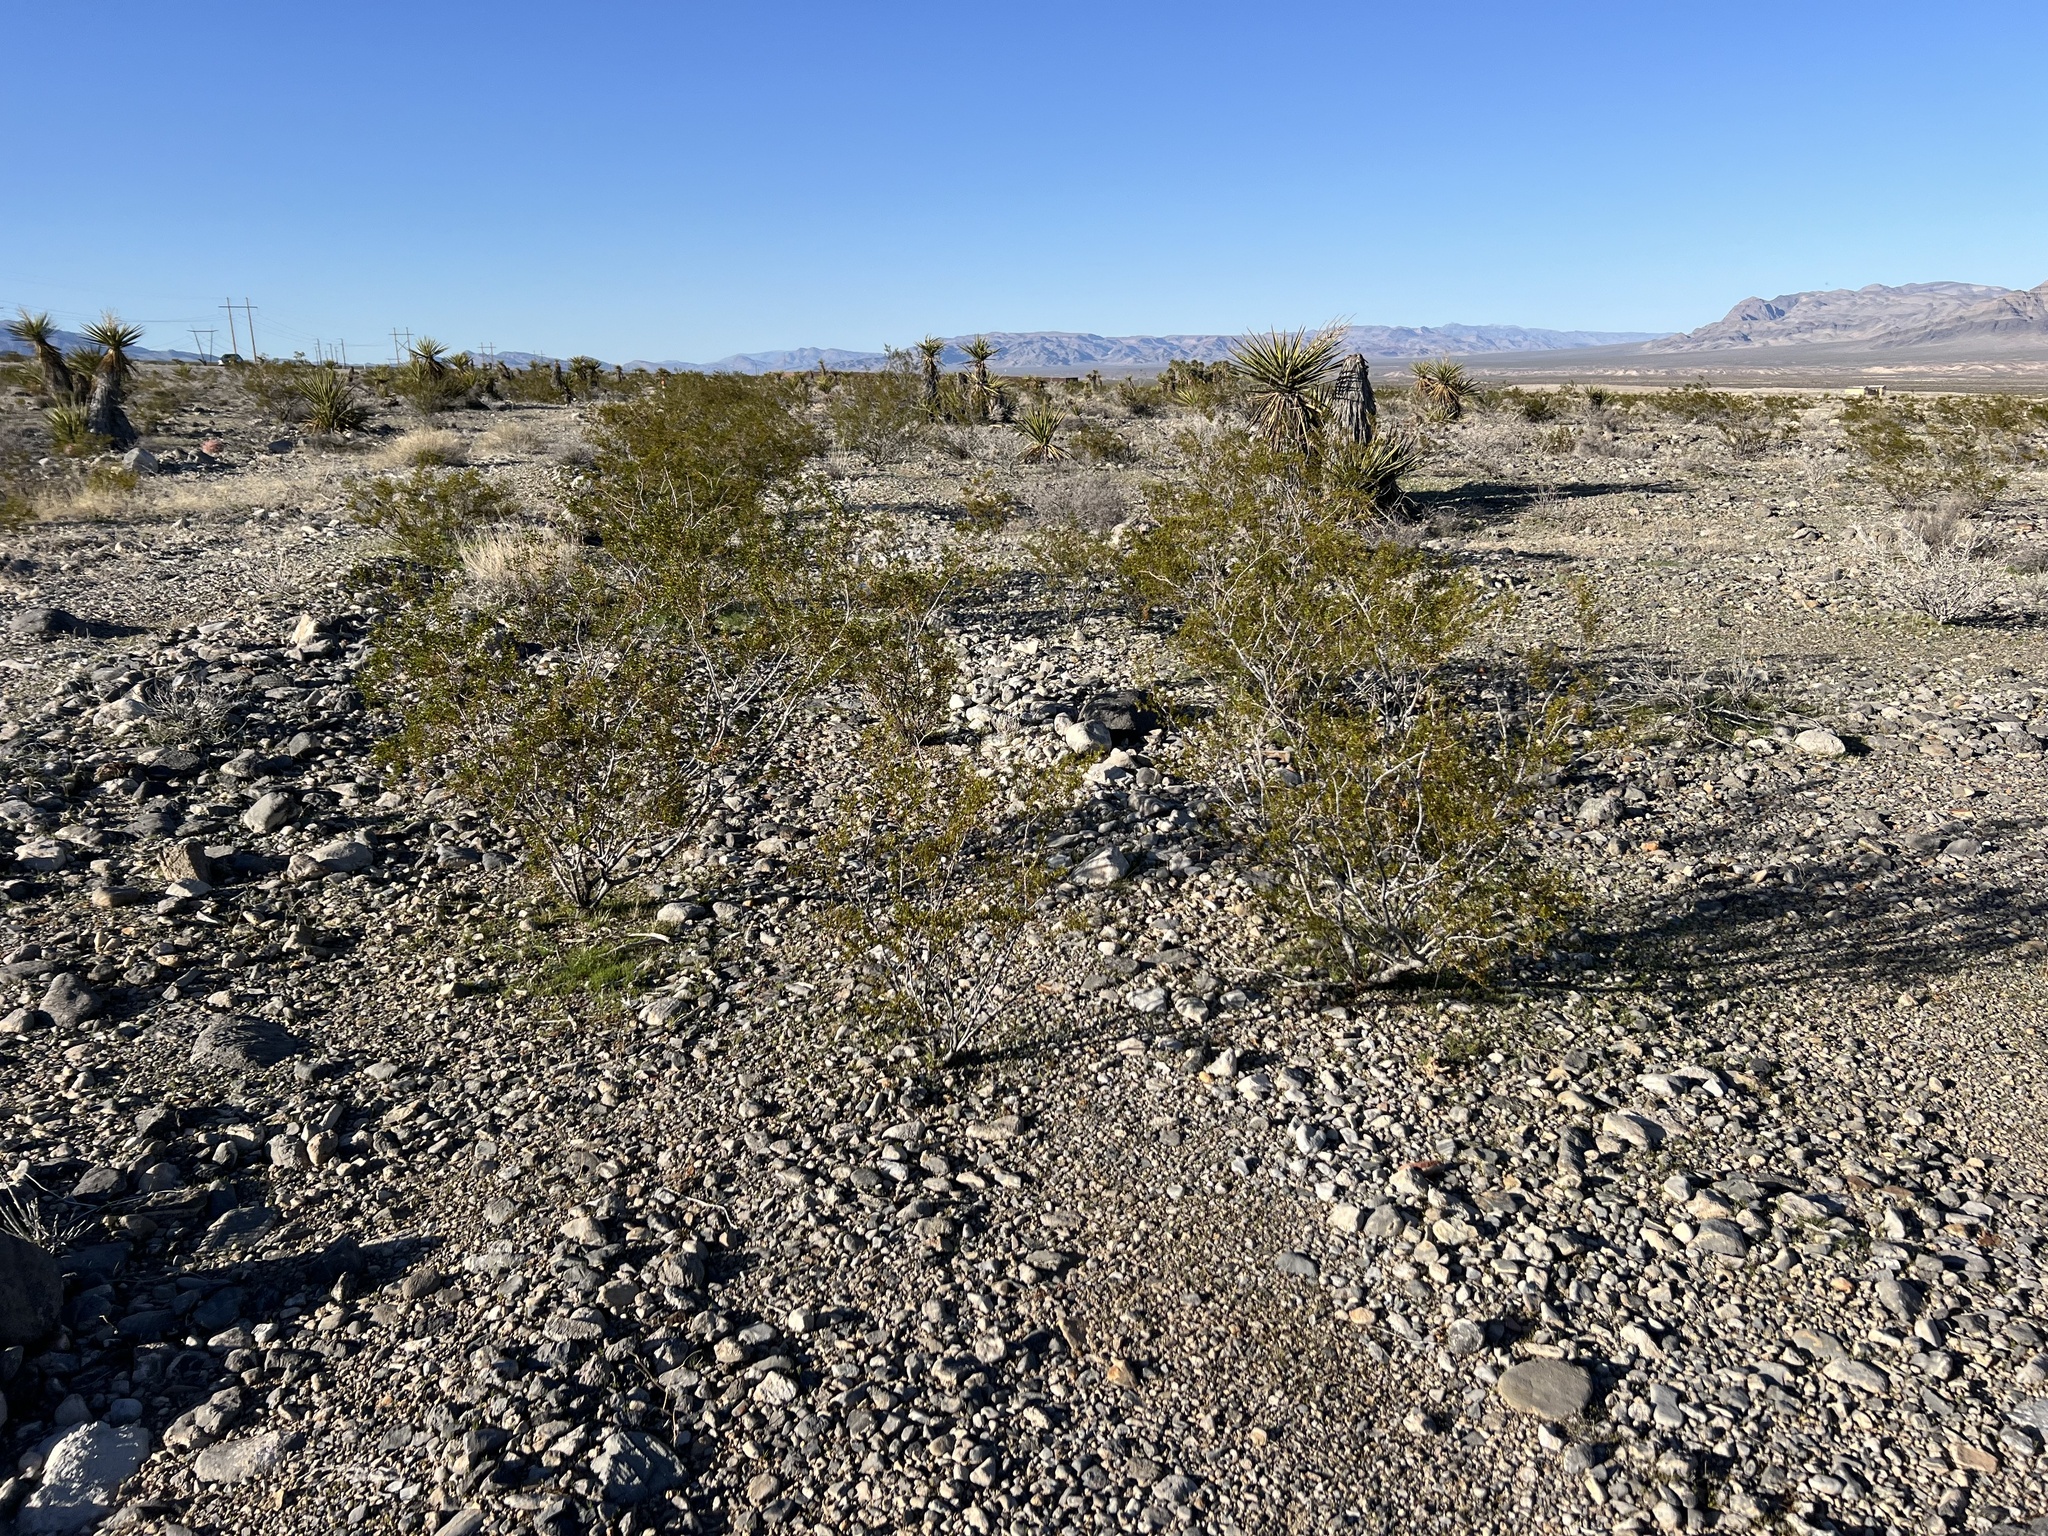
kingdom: Plantae
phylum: Tracheophyta
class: Magnoliopsida
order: Zygophyllales
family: Zygophyllaceae
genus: Larrea
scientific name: Larrea tridentata
